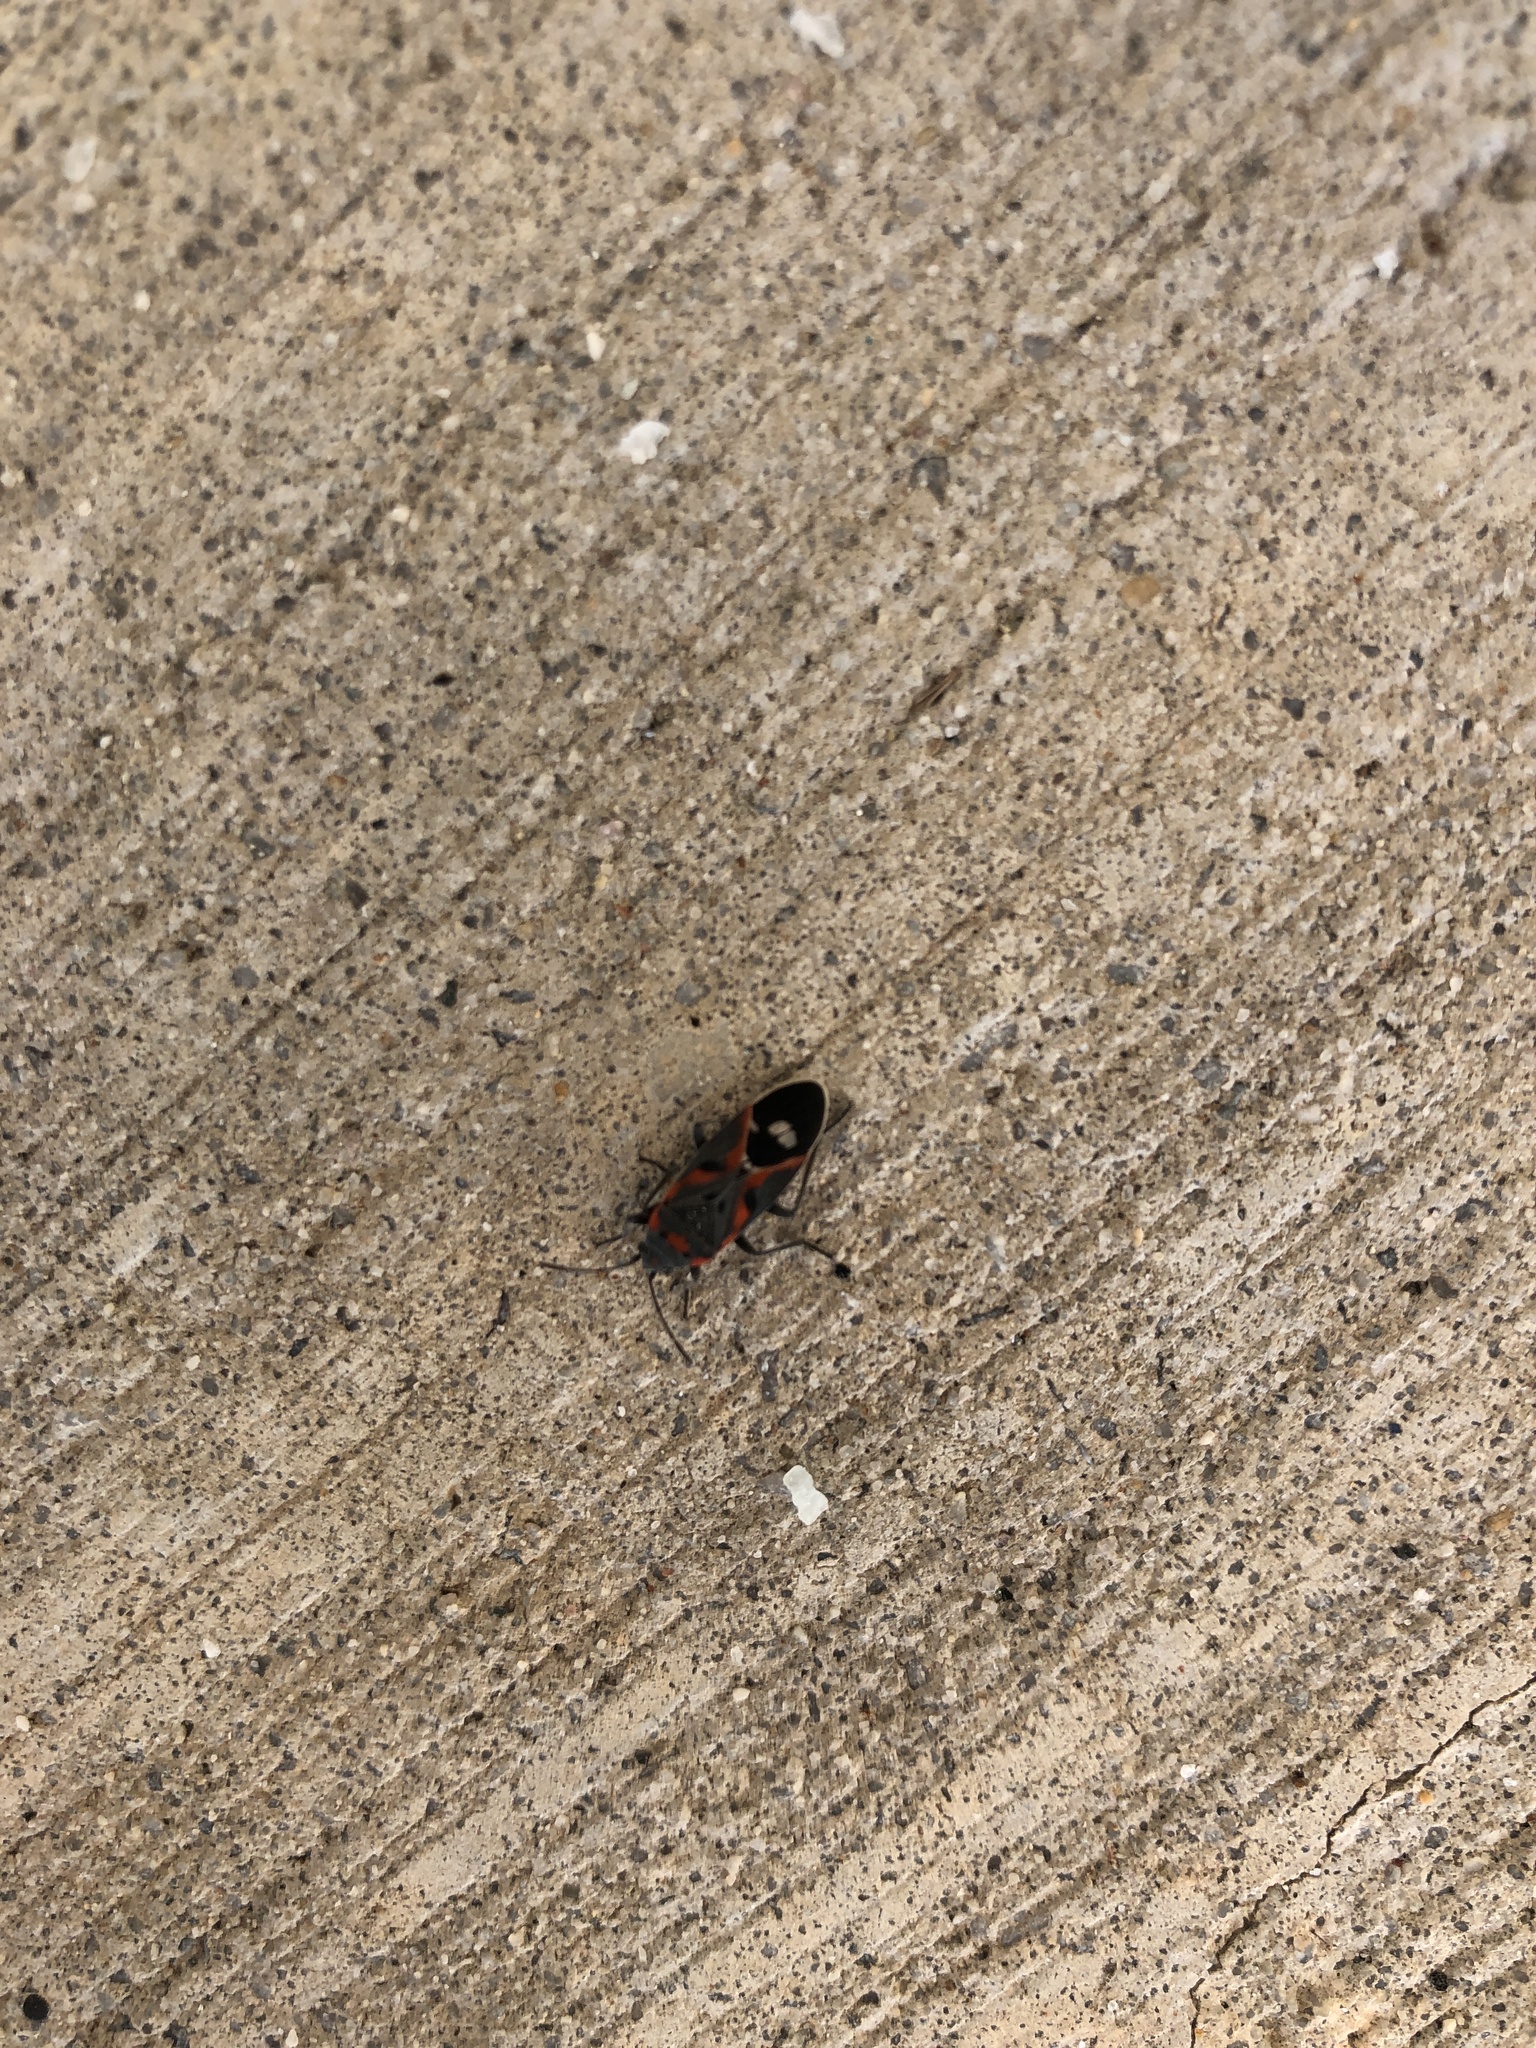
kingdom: Animalia
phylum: Arthropoda
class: Insecta
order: Hemiptera
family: Lygaeidae
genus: Lygaeus
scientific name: Lygaeus kalmii
